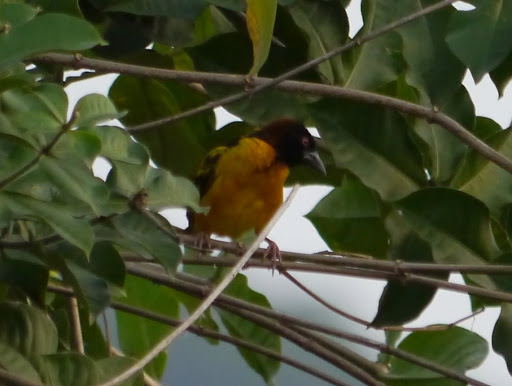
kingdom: Animalia
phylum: Chordata
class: Aves
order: Passeriformes
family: Ploceidae
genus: Ploceus
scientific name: Ploceus cucullatus
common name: Village weaver
